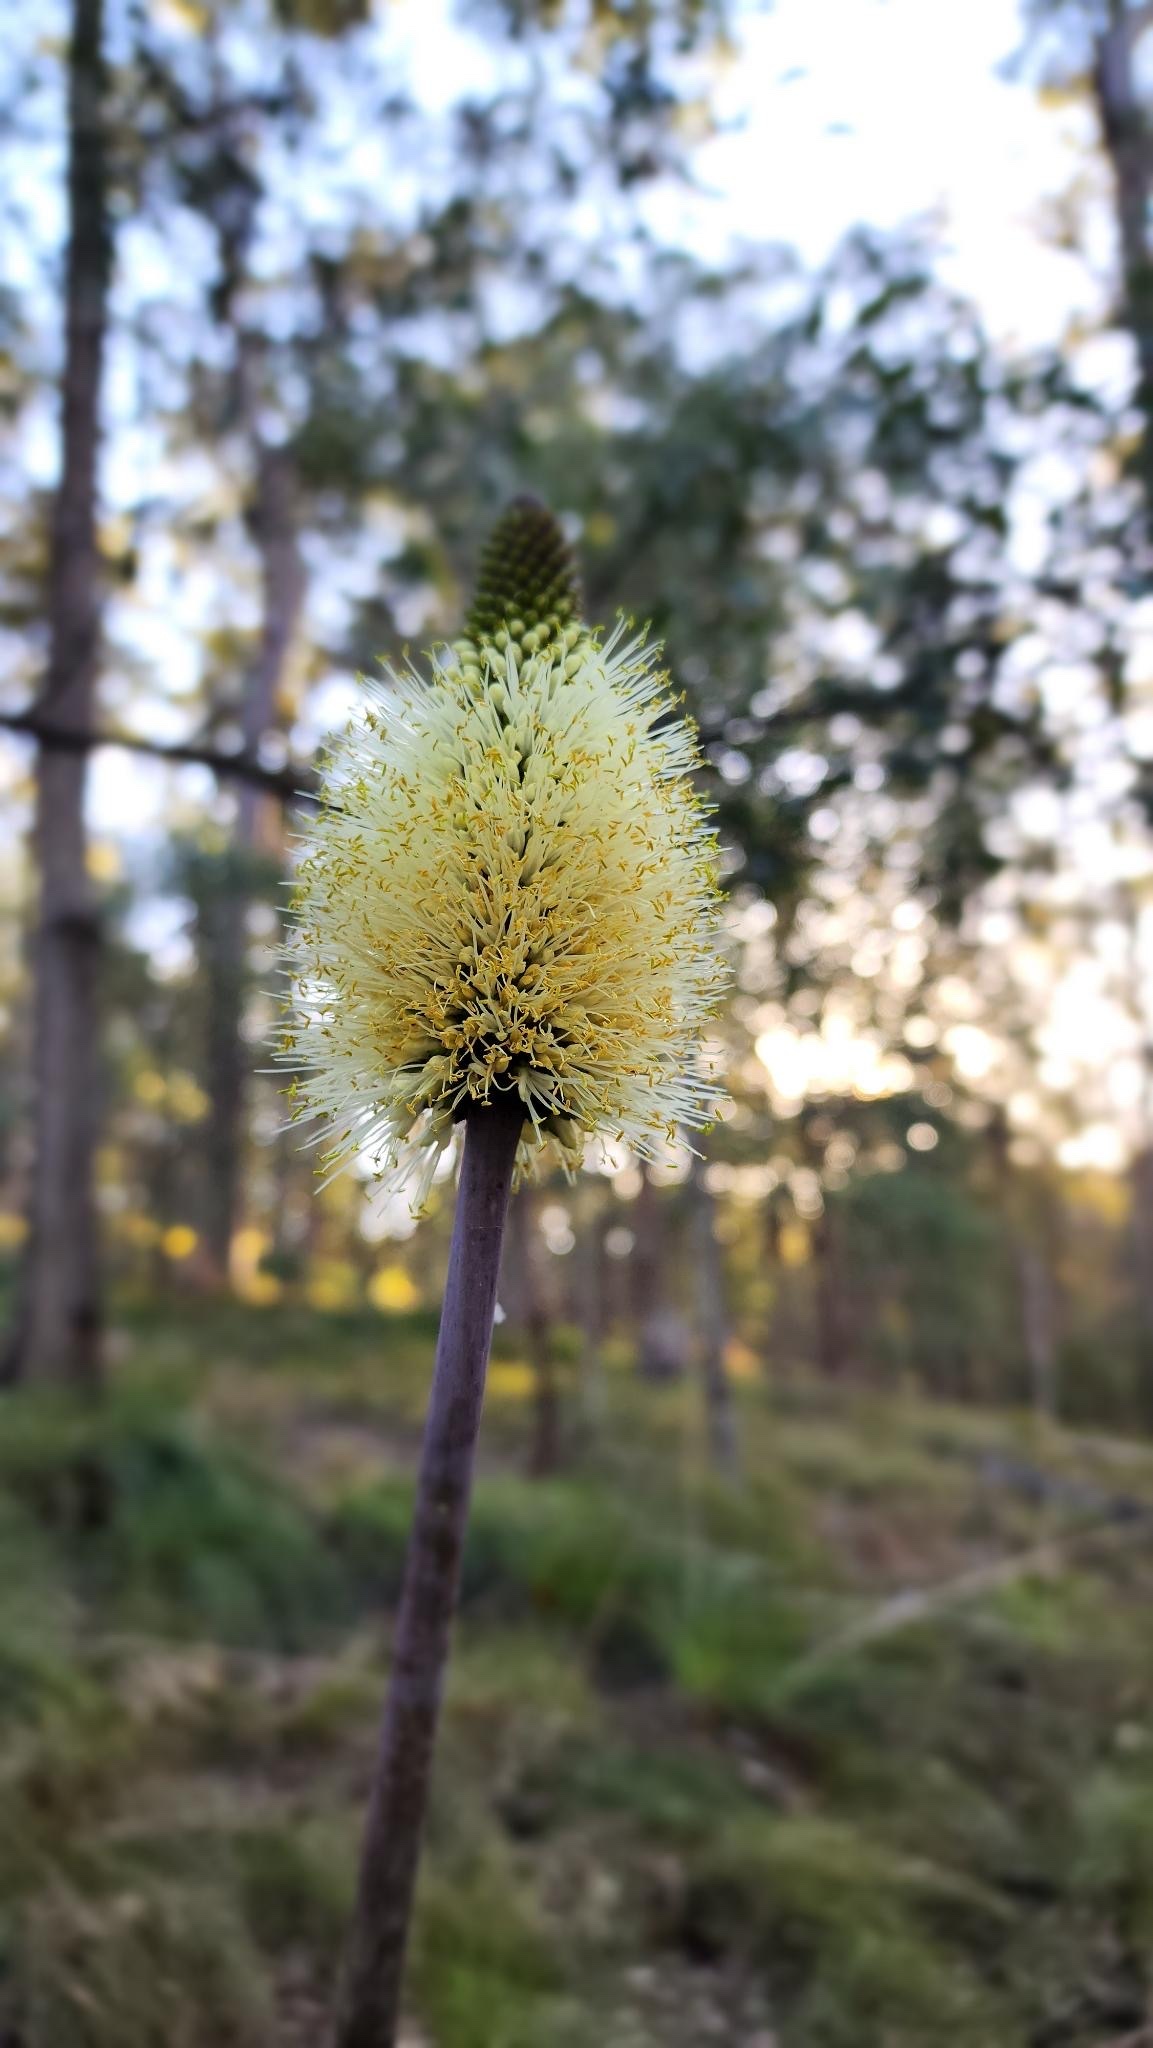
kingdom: Plantae
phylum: Tracheophyta
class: Liliopsida
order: Asparagales
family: Asphodelaceae
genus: Xanthorrhoea
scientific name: Xanthorrhoea macronema
